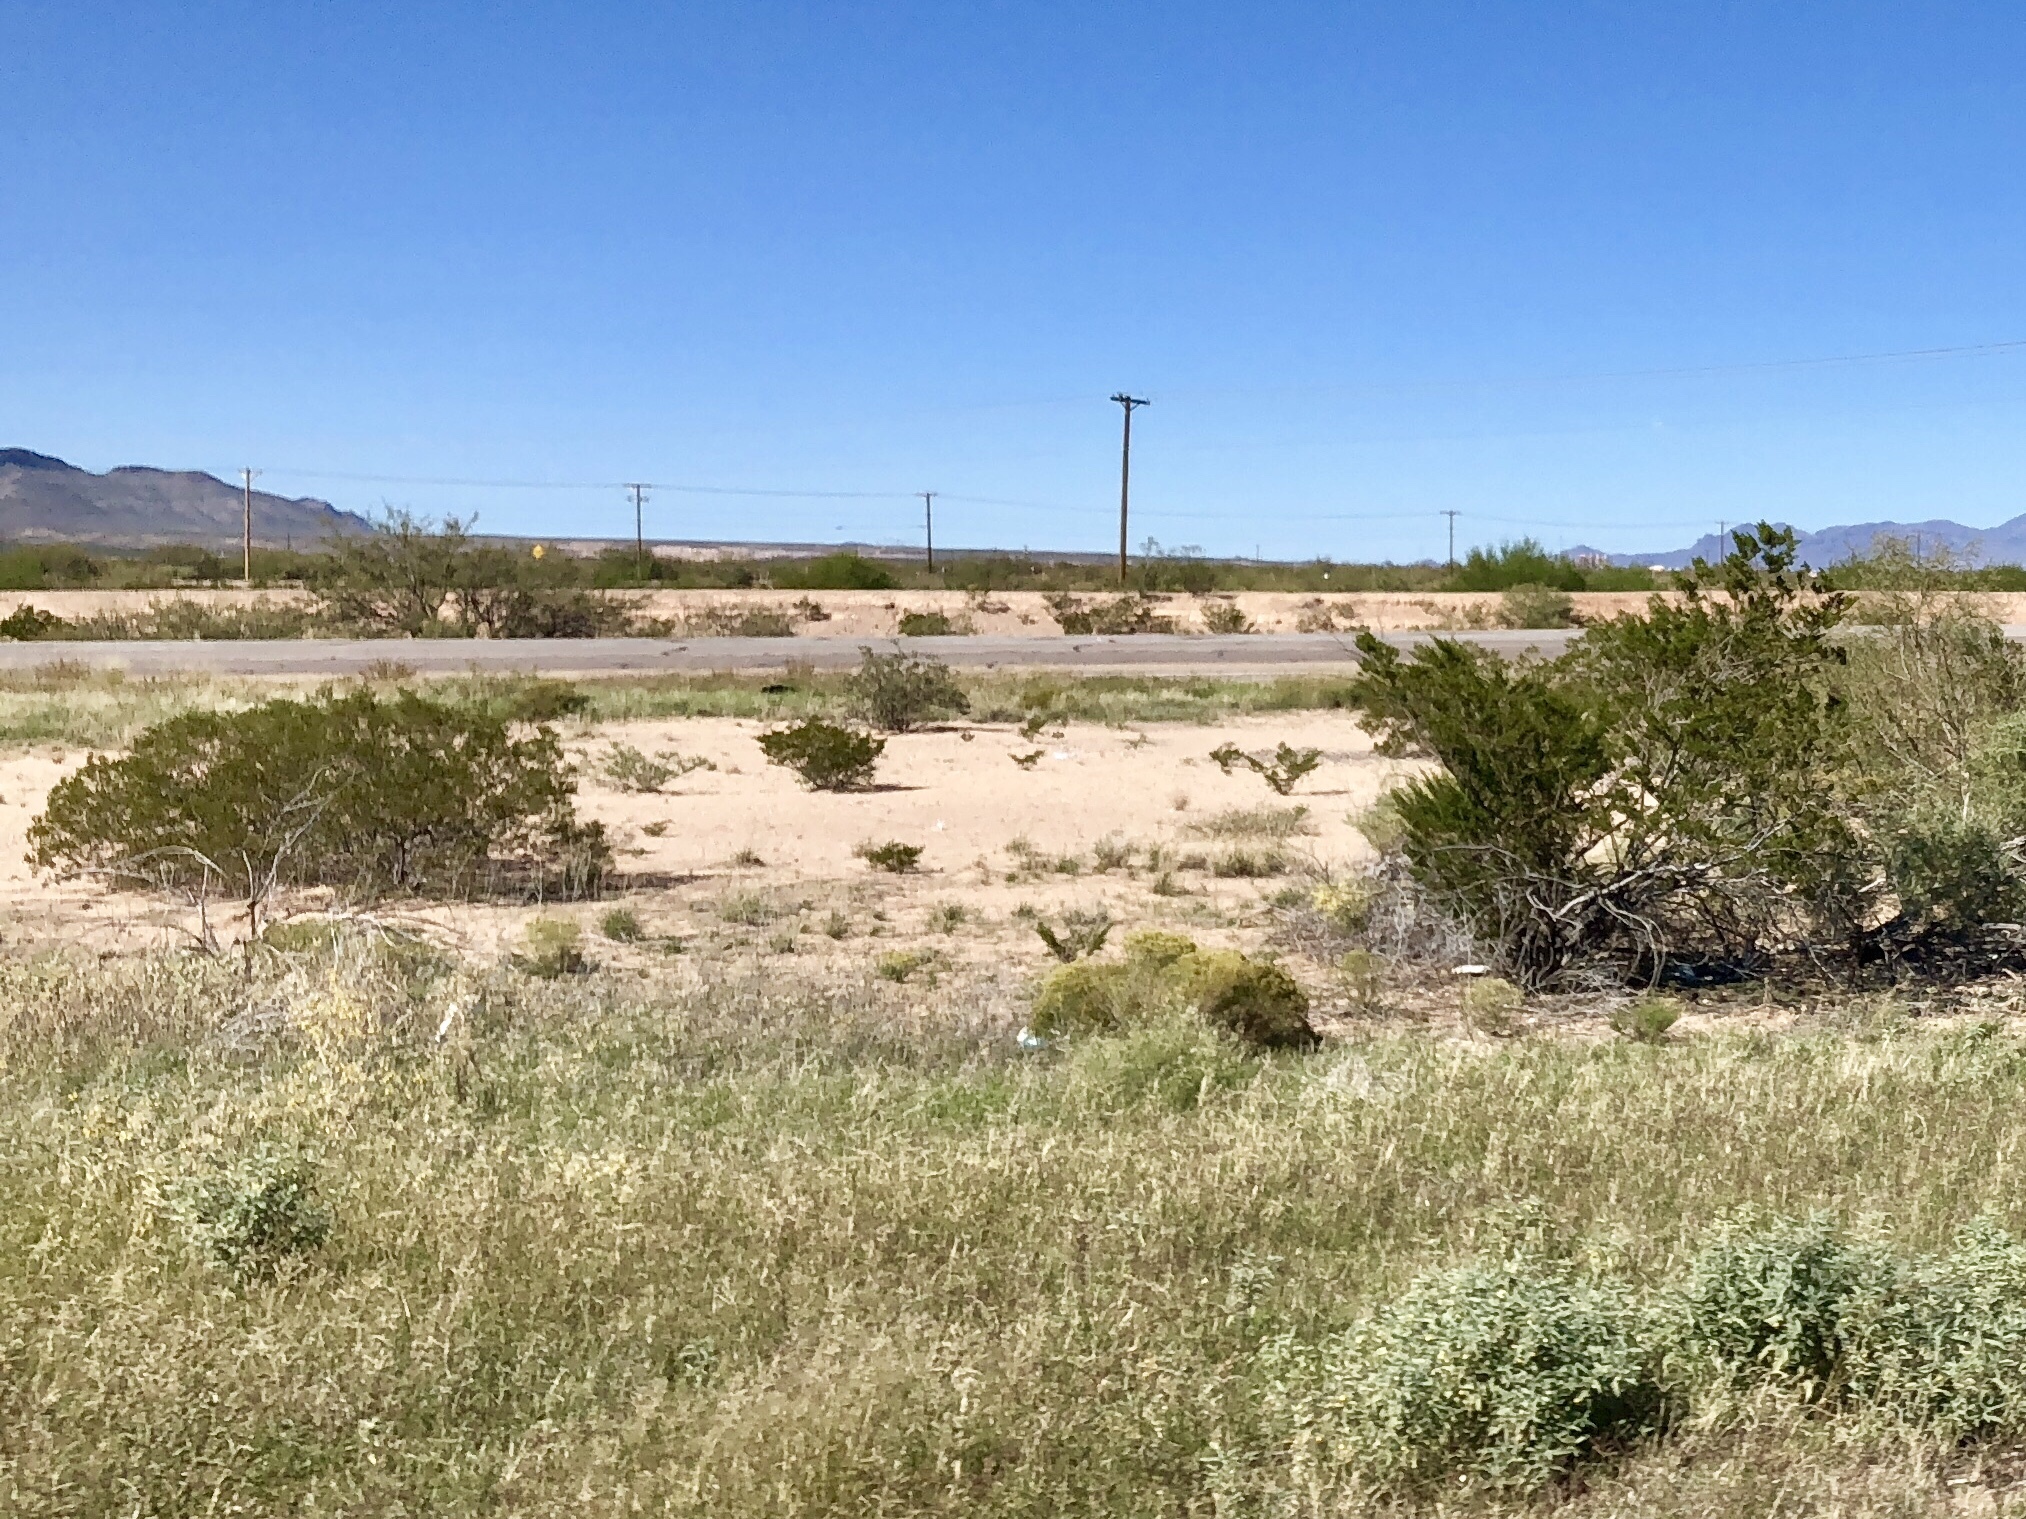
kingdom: Plantae
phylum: Tracheophyta
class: Magnoliopsida
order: Zygophyllales
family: Zygophyllaceae
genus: Larrea
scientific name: Larrea tridentata
